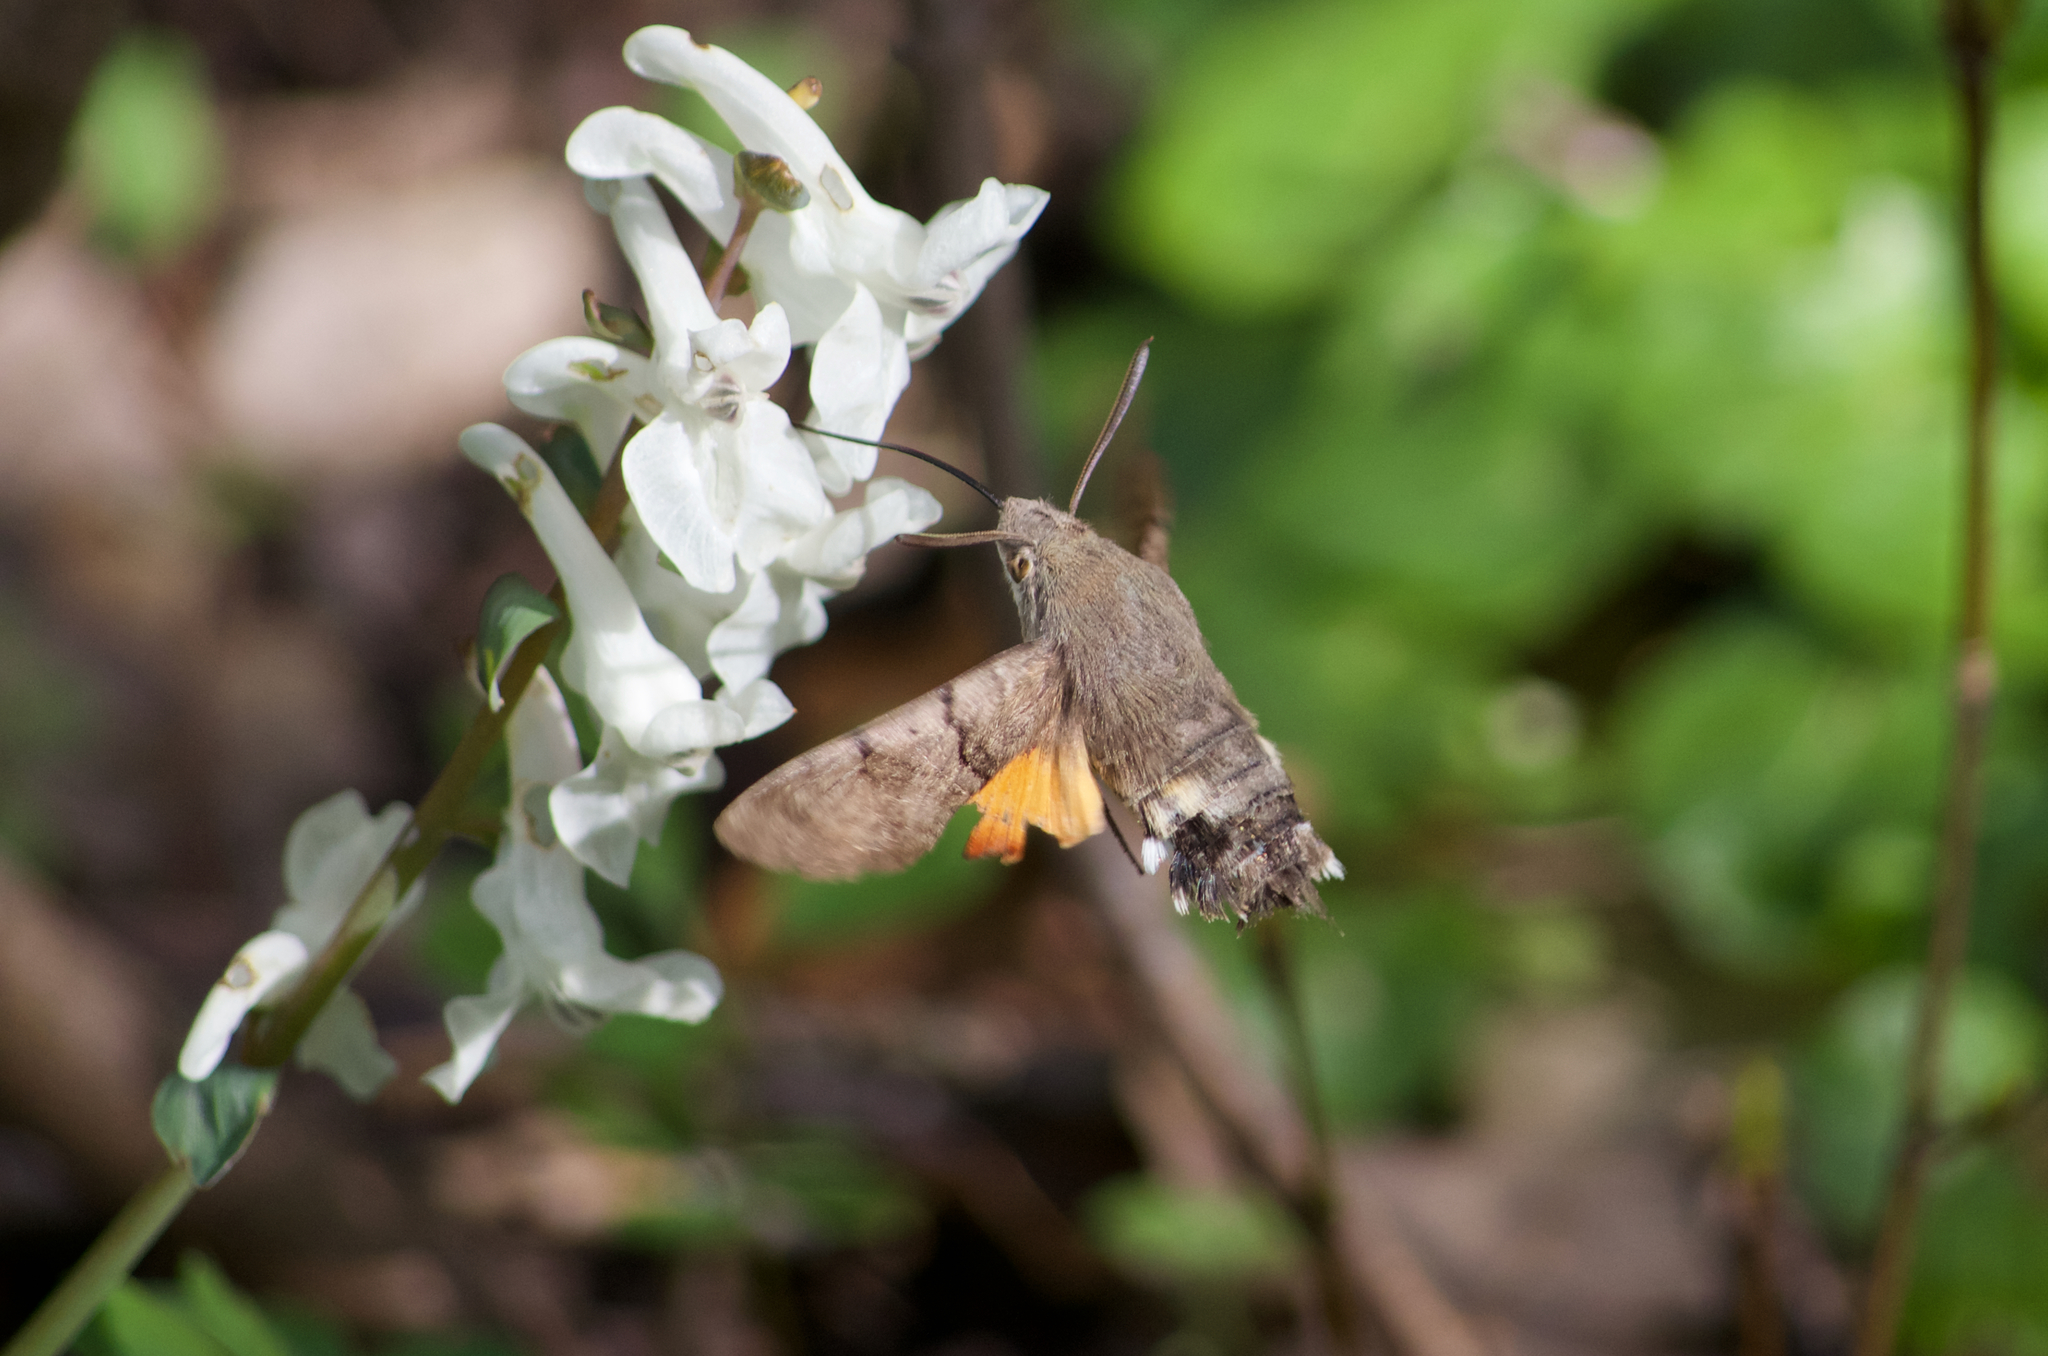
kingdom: Animalia
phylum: Arthropoda
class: Insecta
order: Lepidoptera
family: Sphingidae
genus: Macroglossum
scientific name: Macroglossum stellatarum
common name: Humming-bird hawk-moth
